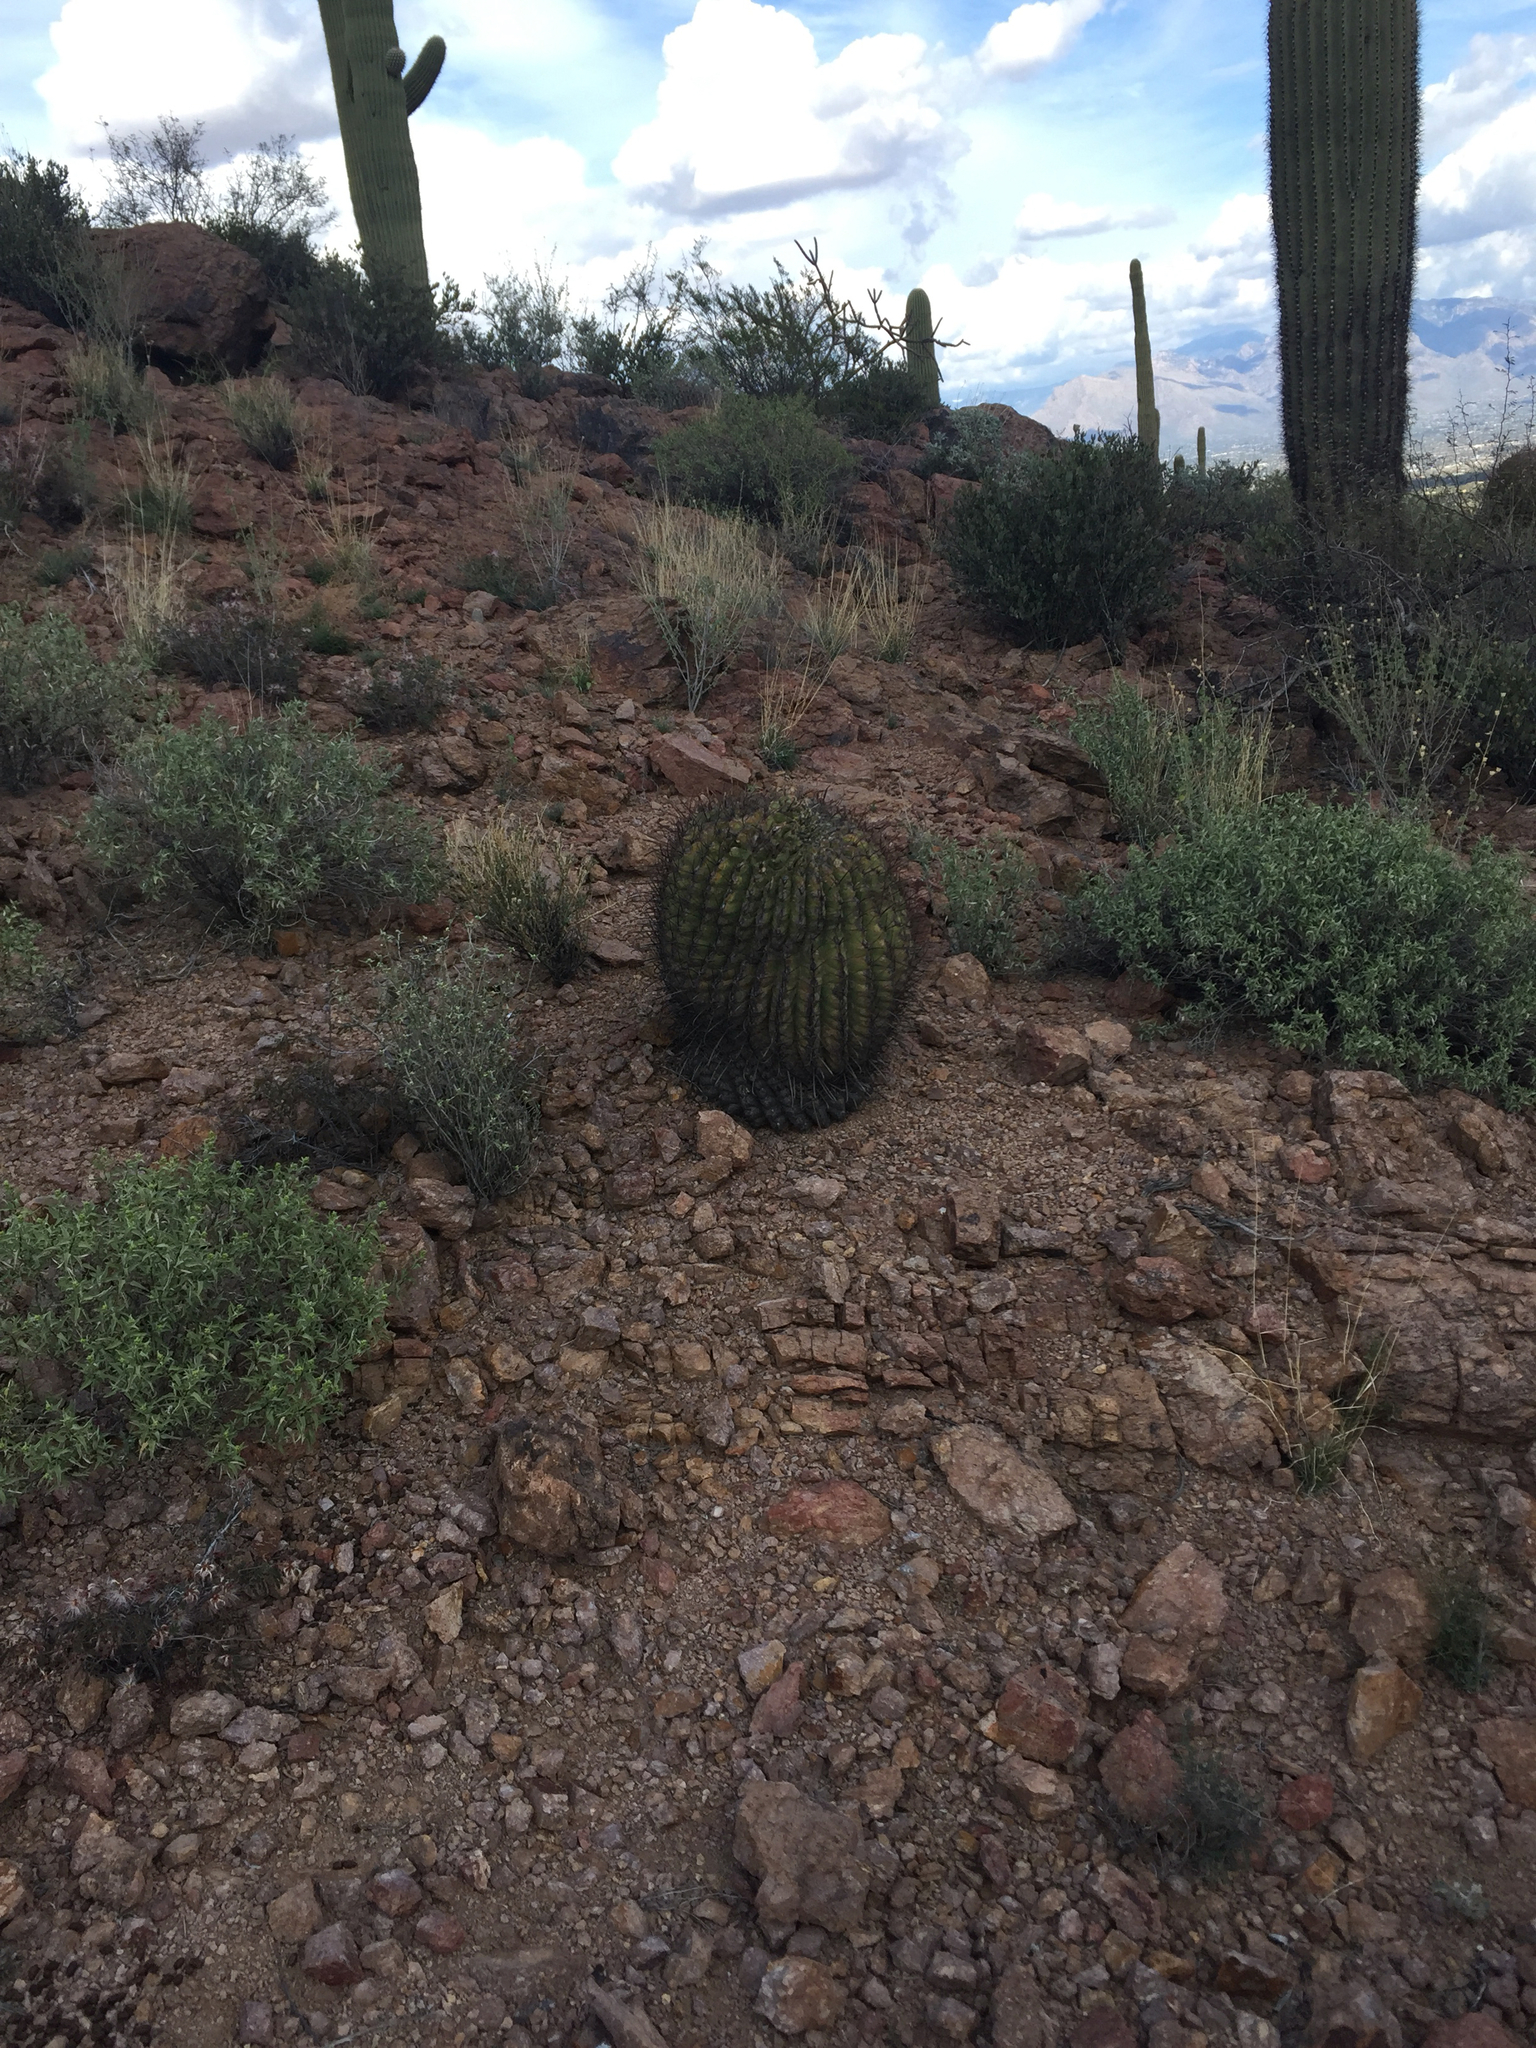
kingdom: Plantae
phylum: Tracheophyta
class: Magnoliopsida
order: Caryophyllales
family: Cactaceae
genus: Ferocactus
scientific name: Ferocactus wislizeni
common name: Candy barrel cactus
